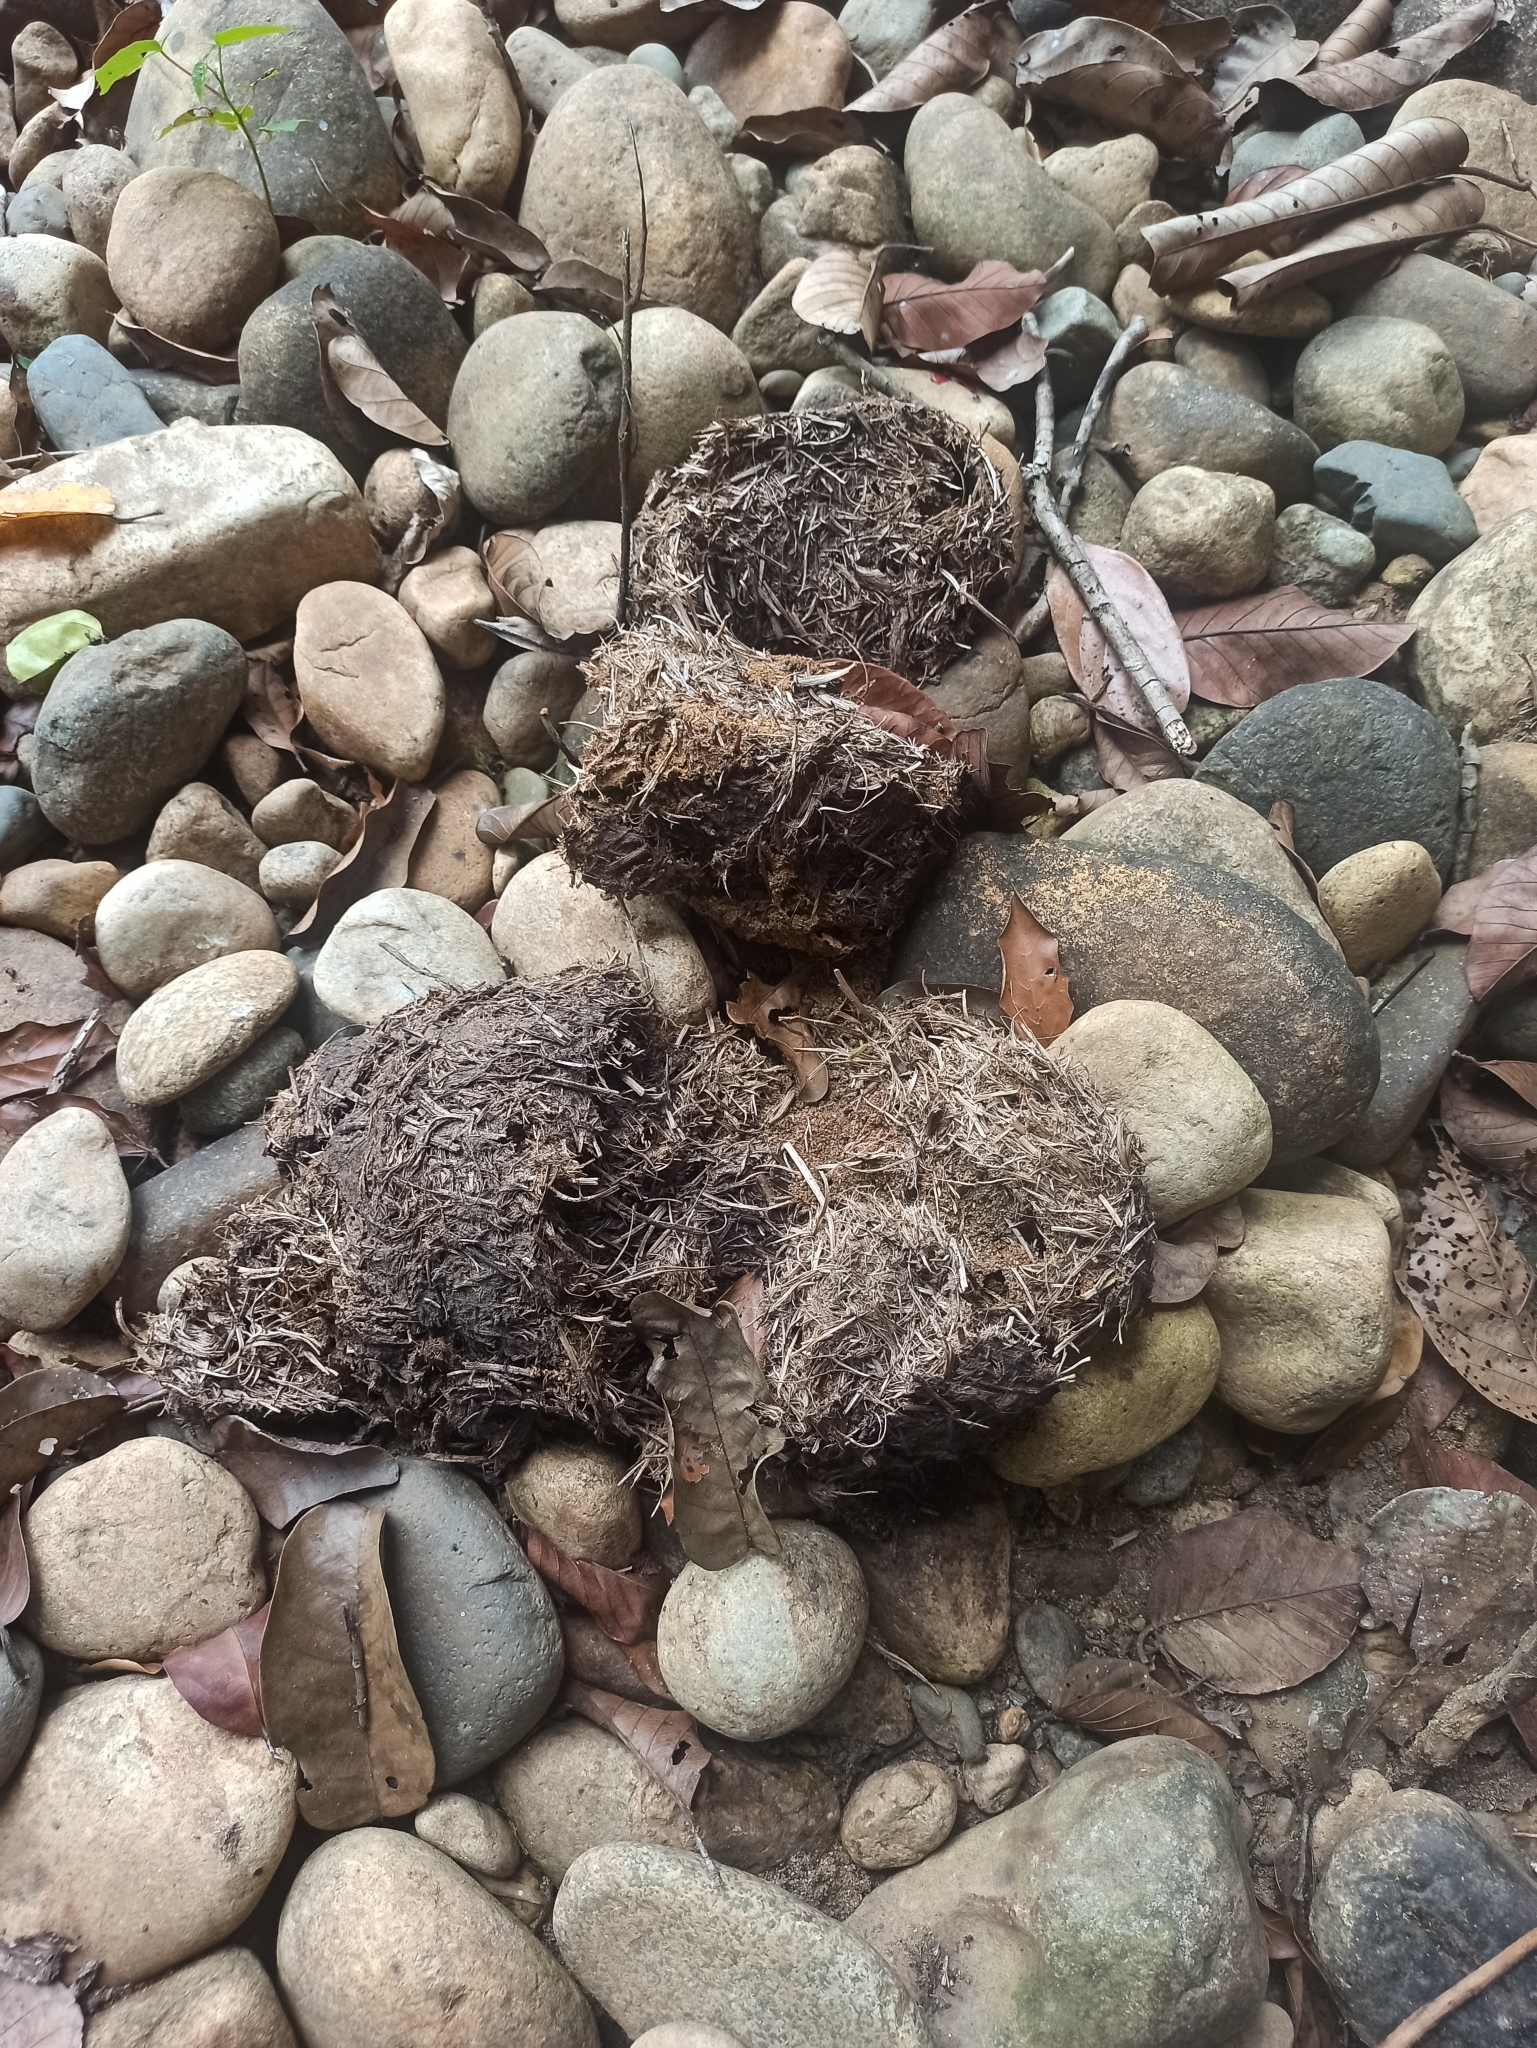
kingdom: Animalia
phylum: Chordata
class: Mammalia
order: Proboscidea
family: Elephantidae
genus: Elephas
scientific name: Elephas maximus
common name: Asian elephant
